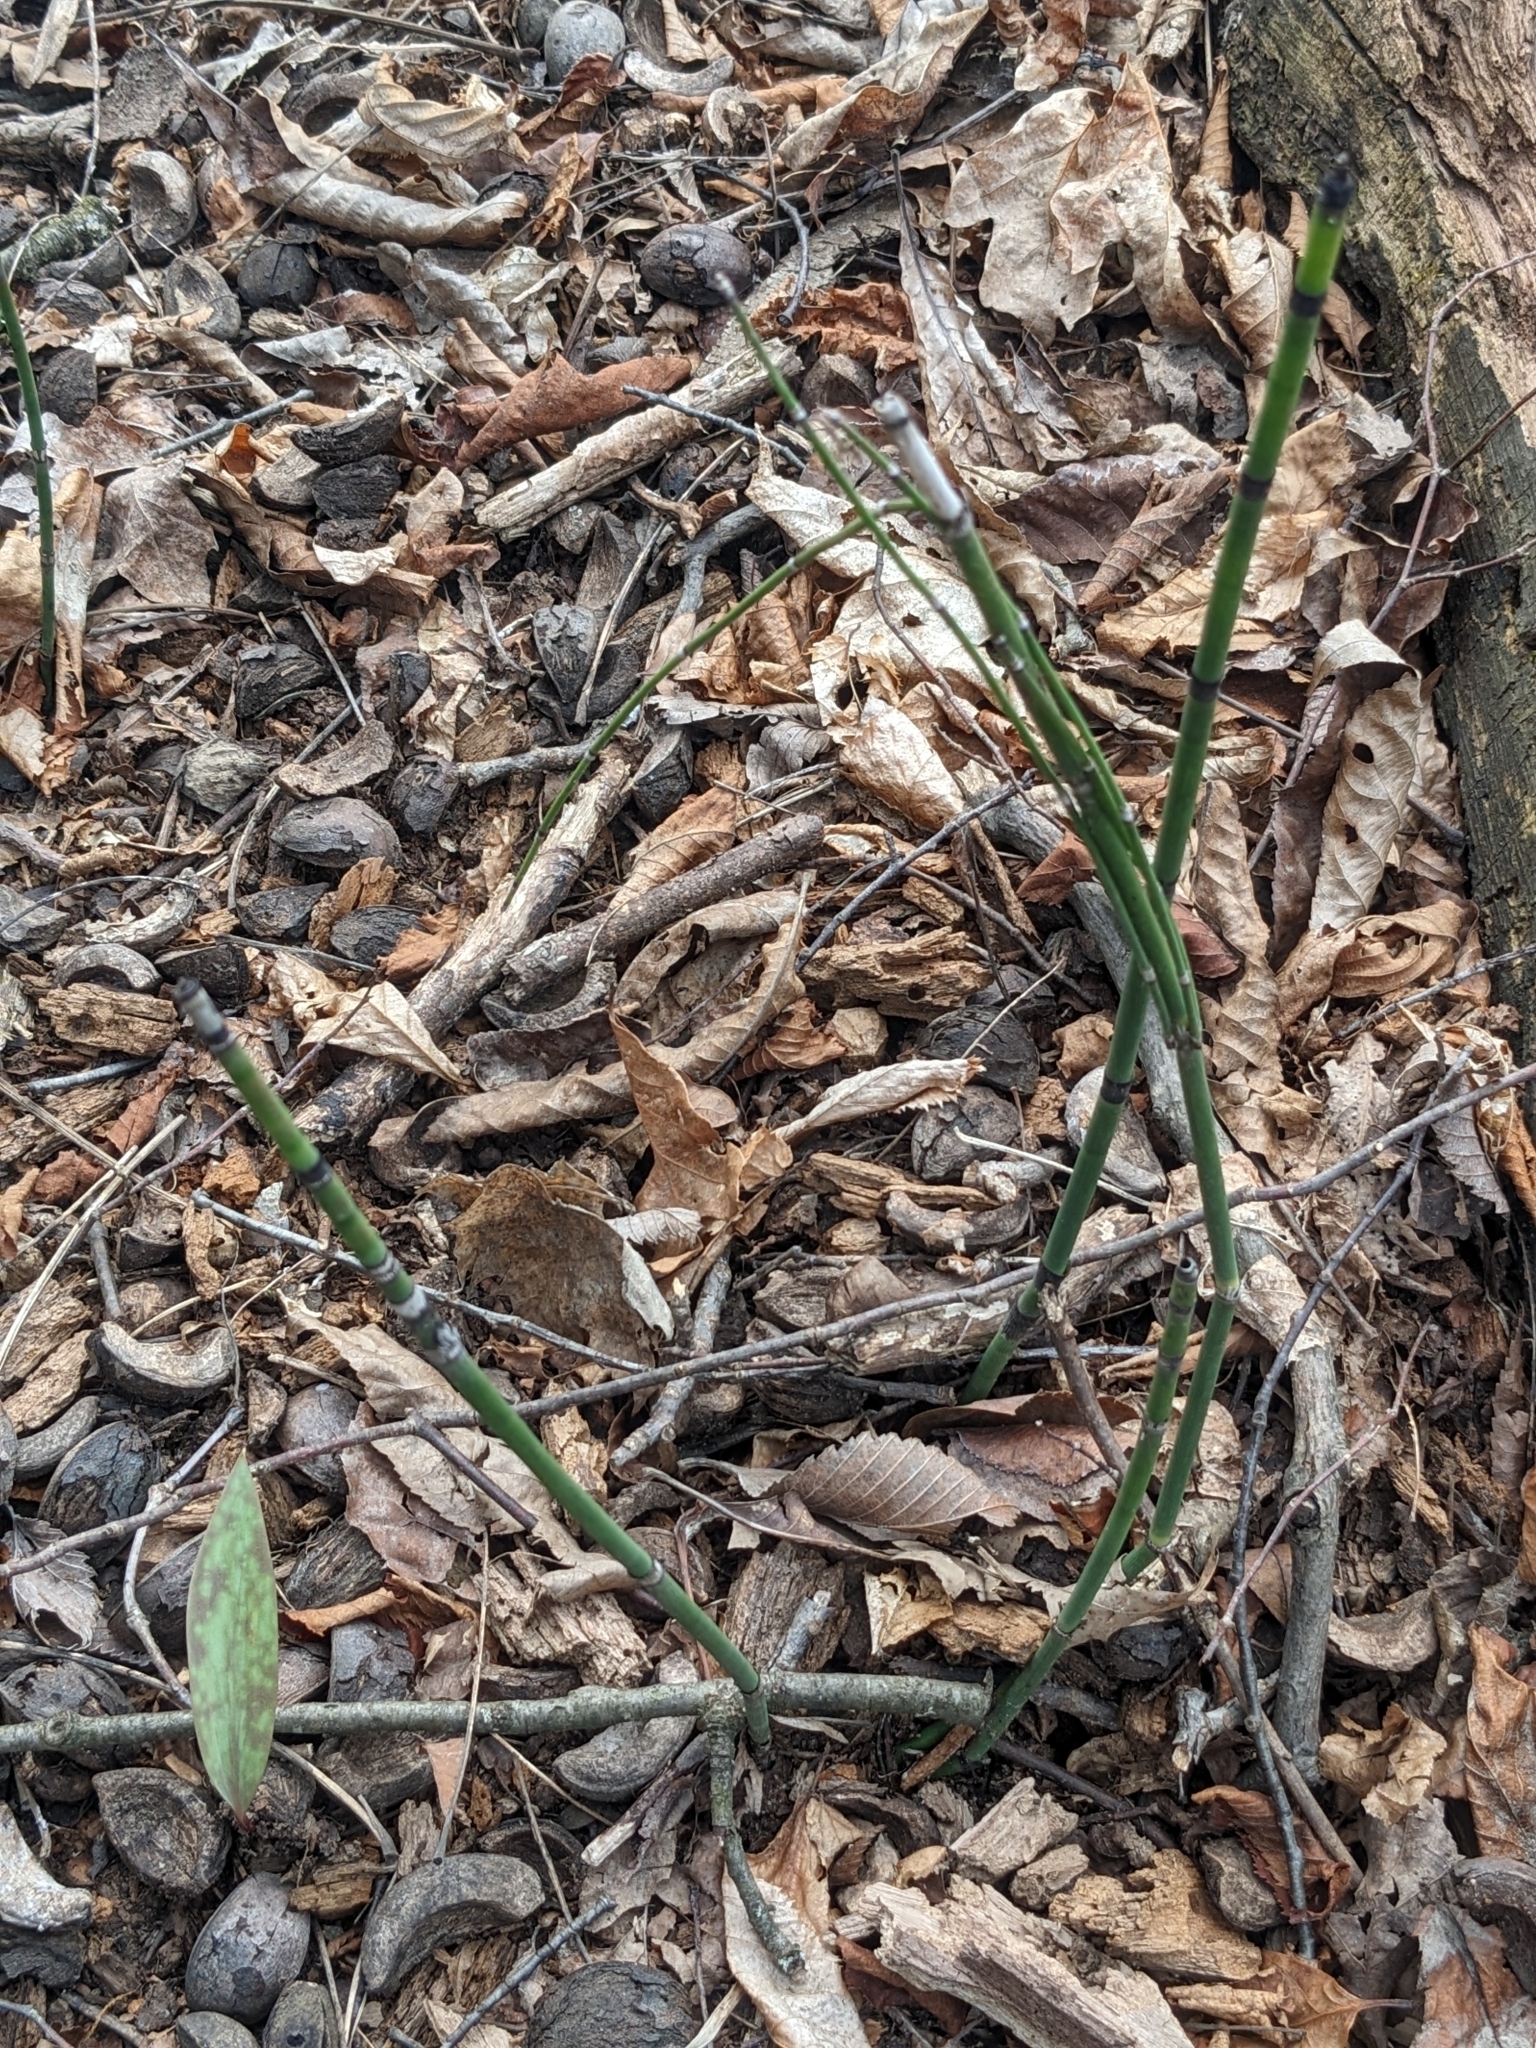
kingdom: Plantae
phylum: Tracheophyta
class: Polypodiopsida
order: Equisetales
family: Equisetaceae
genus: Equisetum
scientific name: Equisetum praealtum
